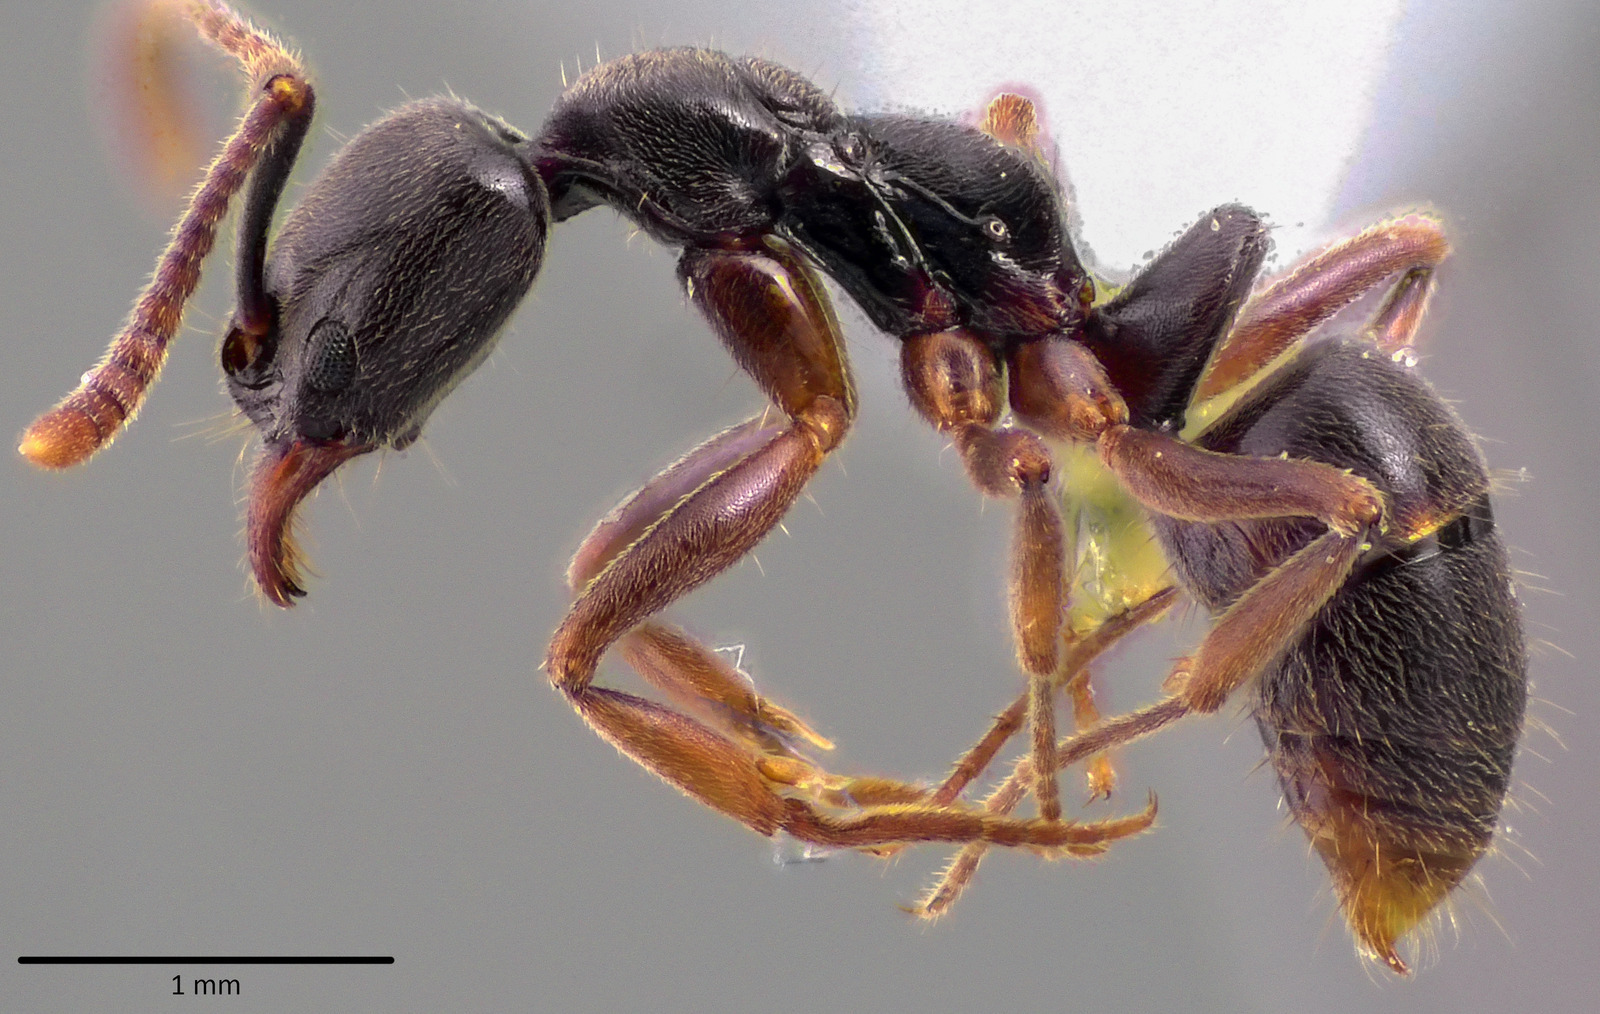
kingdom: Animalia
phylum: Arthropoda
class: Insecta
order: Hymenoptera
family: Formicidae
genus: Pachycondyla
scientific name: Pachycondyla chinensis
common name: Asian needle ant
